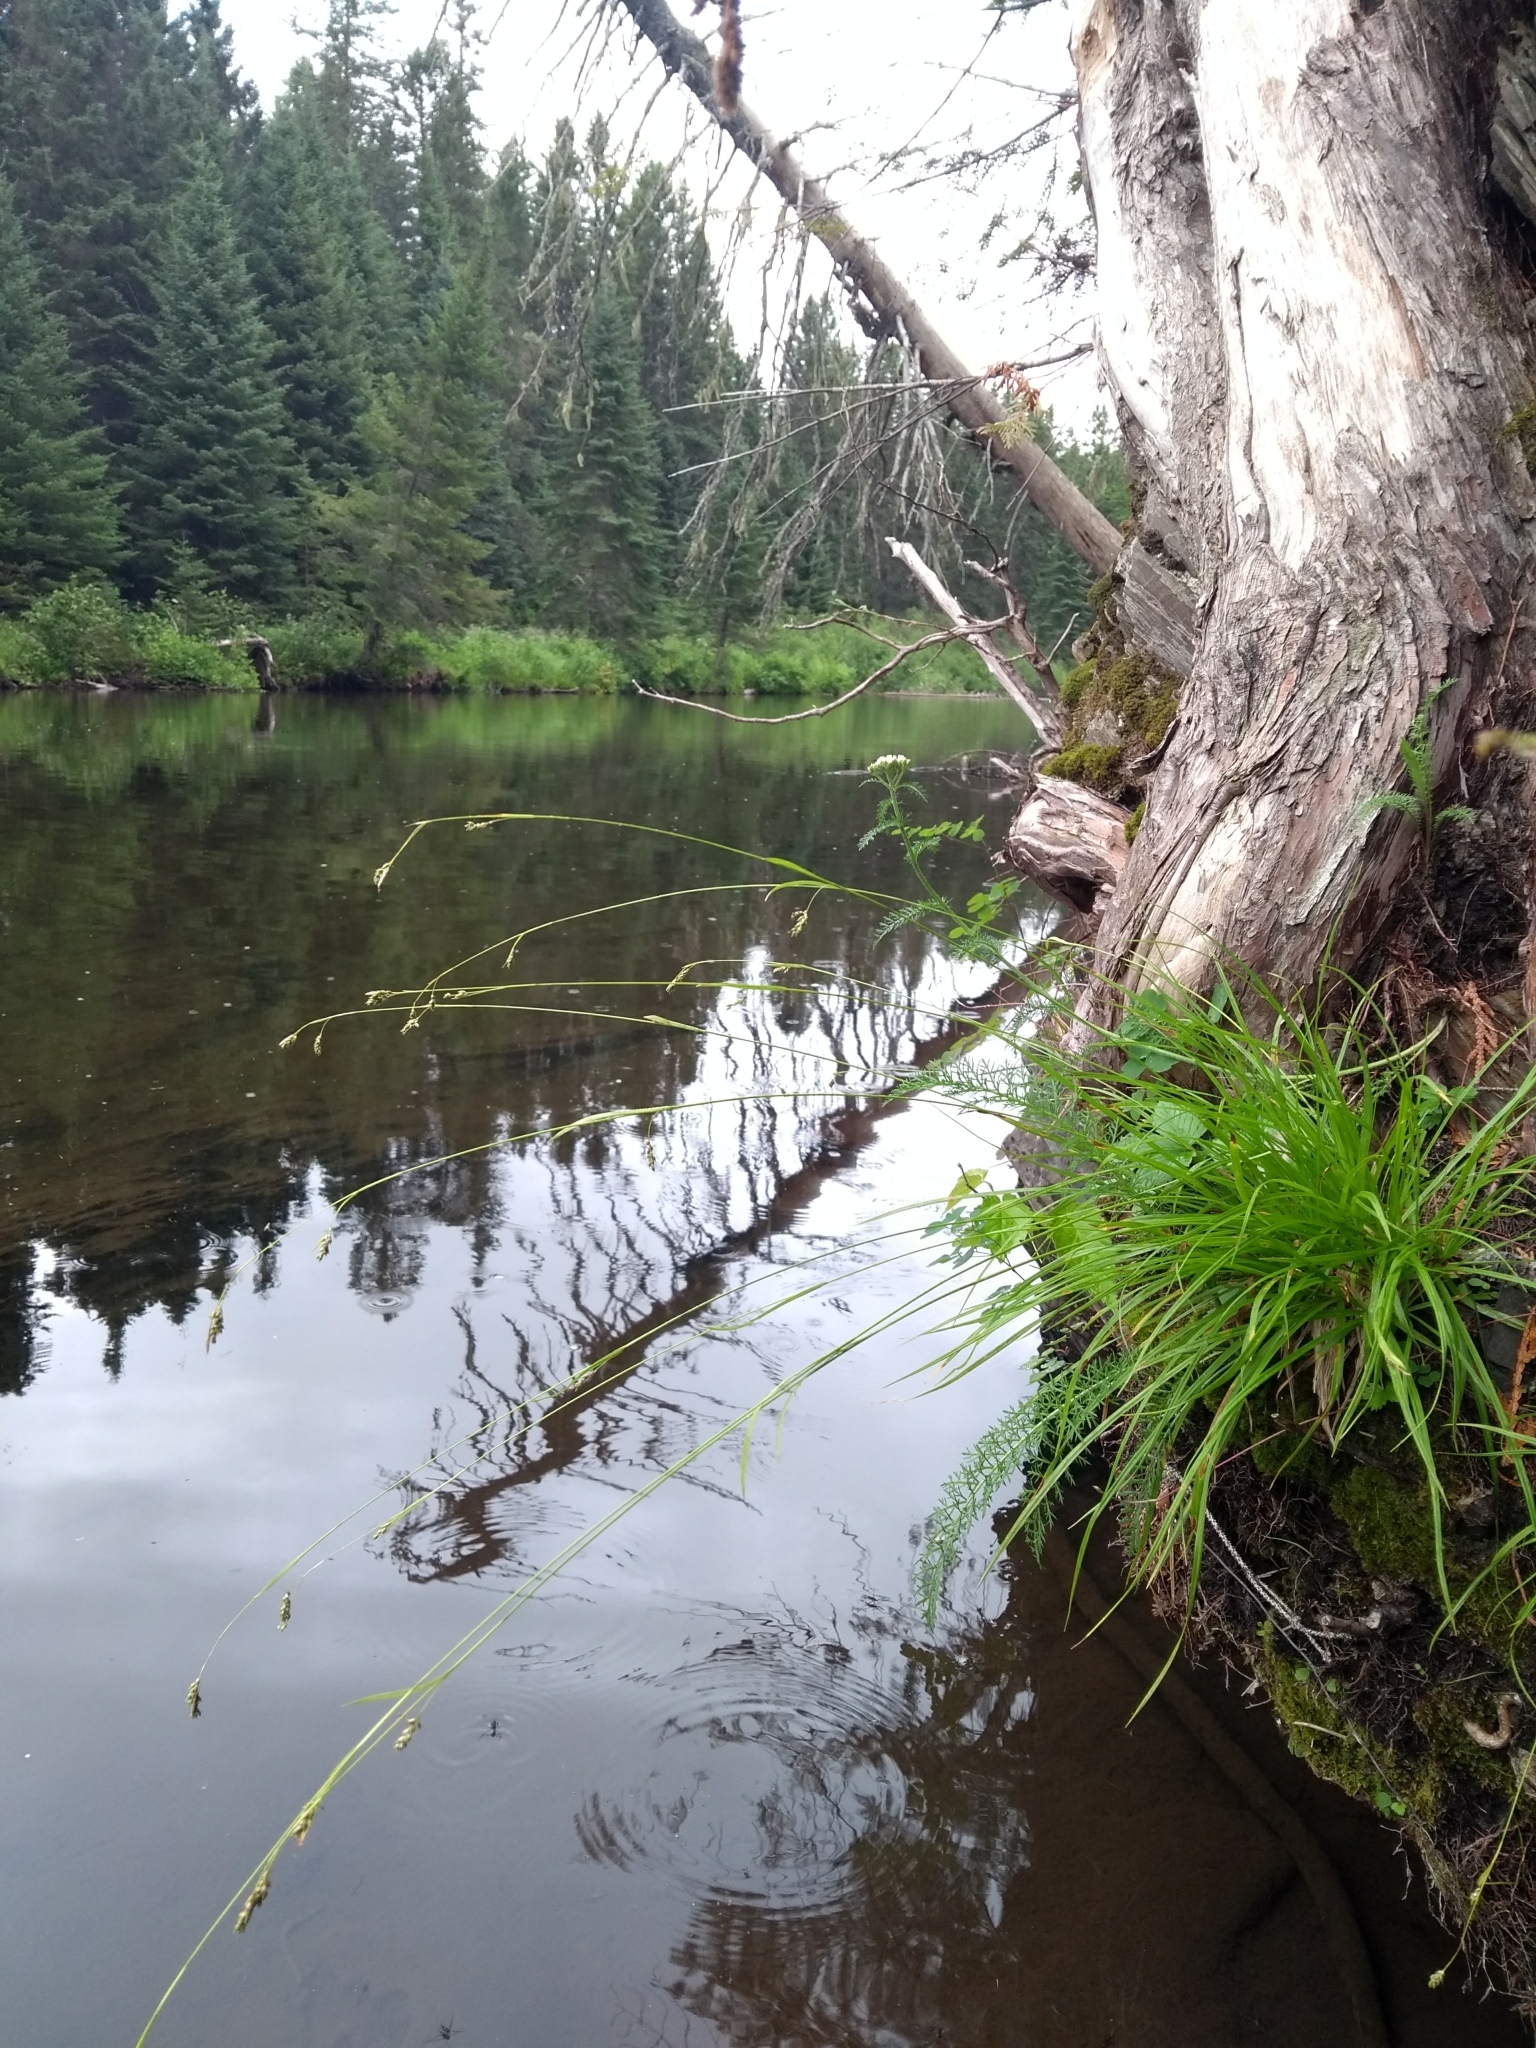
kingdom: Plantae
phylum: Tracheophyta
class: Liliopsida
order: Poales
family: Cyperaceae
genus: Carex
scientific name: Carex capillaris
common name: Hair sedge
